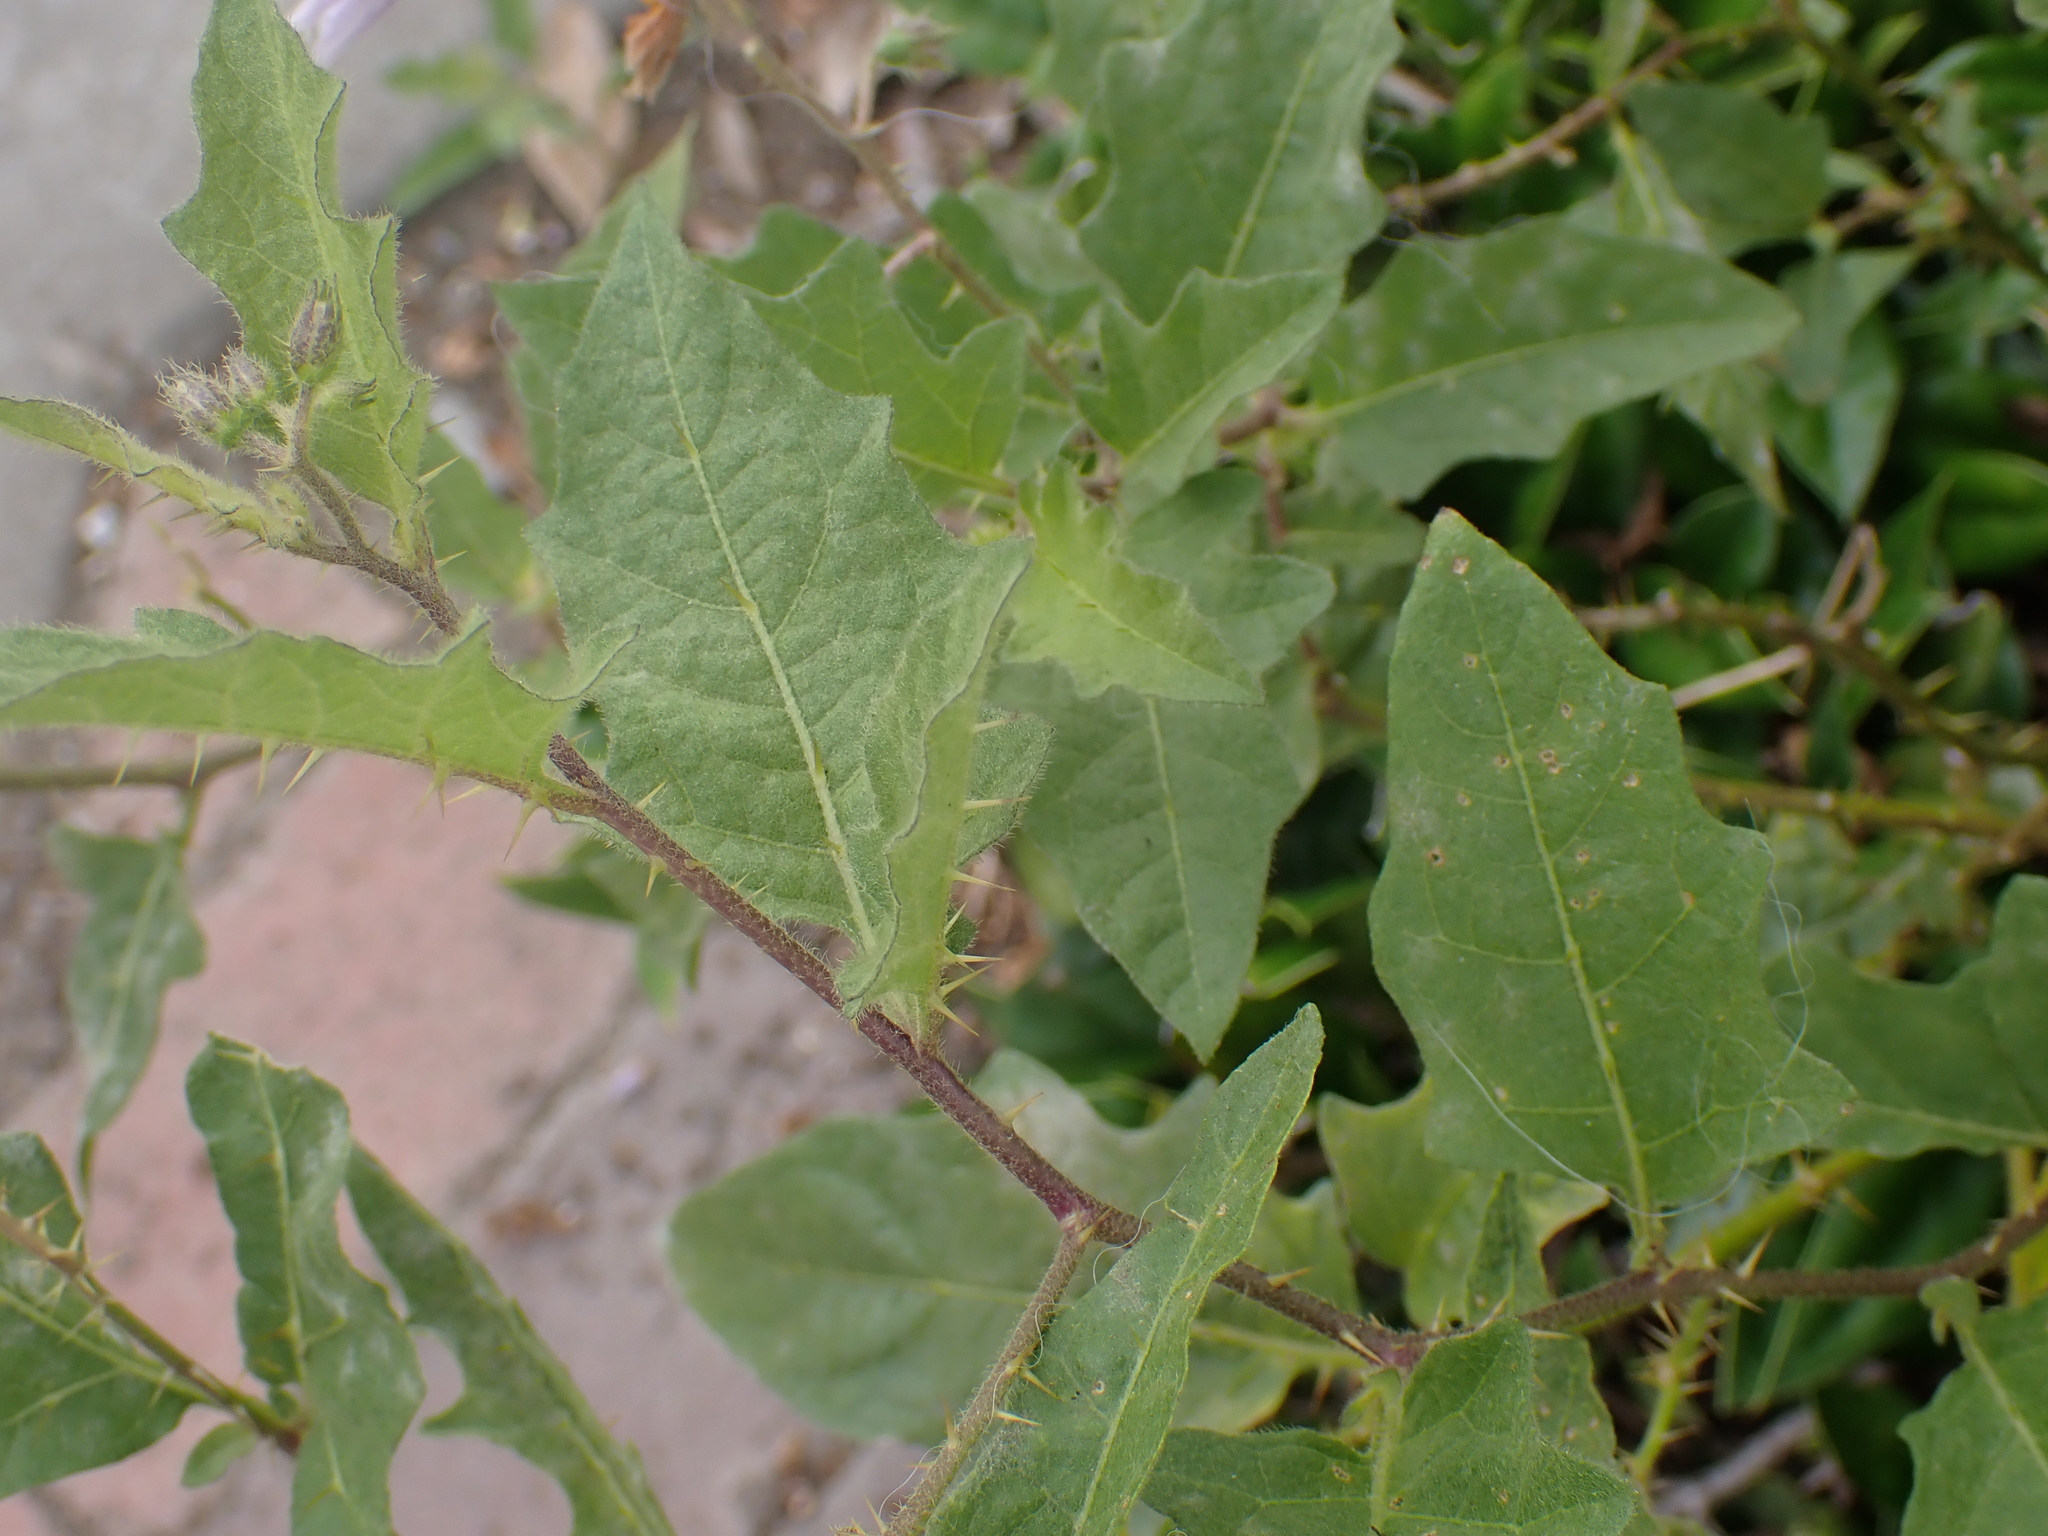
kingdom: Plantae
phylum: Tracheophyta
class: Magnoliopsida
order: Solanales
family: Solanaceae
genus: Solanum
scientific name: Solanum carolinense
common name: Horse-nettle
